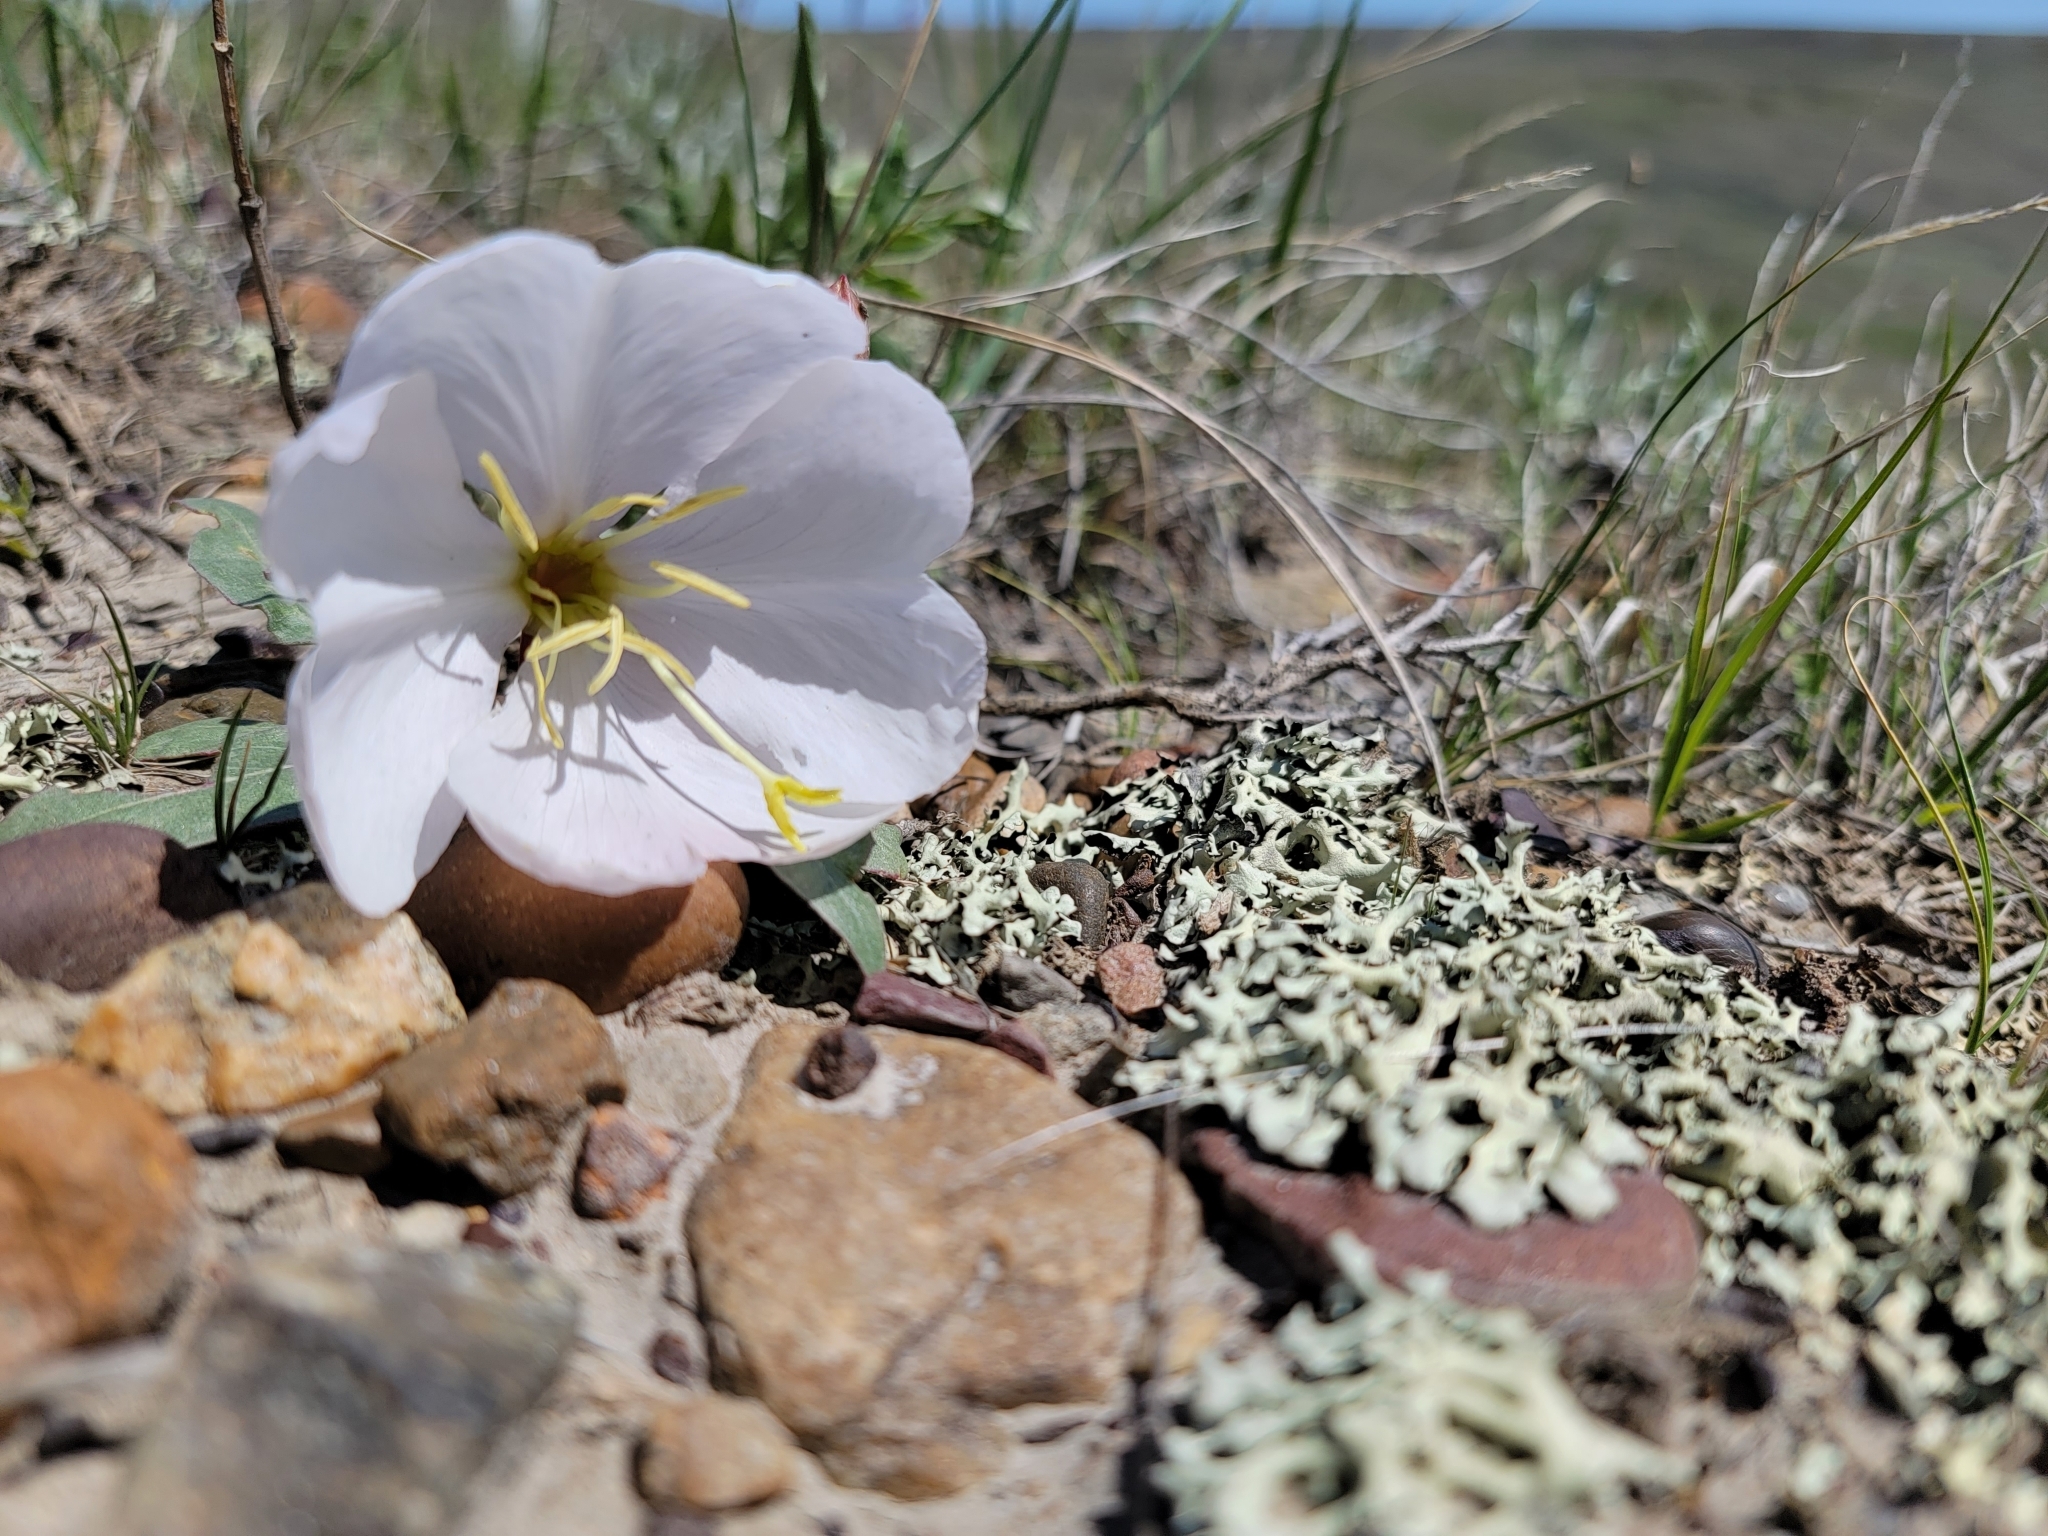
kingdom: Plantae
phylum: Tracheophyta
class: Magnoliopsida
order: Myrtales
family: Onagraceae
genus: Oenothera
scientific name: Oenothera cespitosa
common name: Tufted evening-primrose
